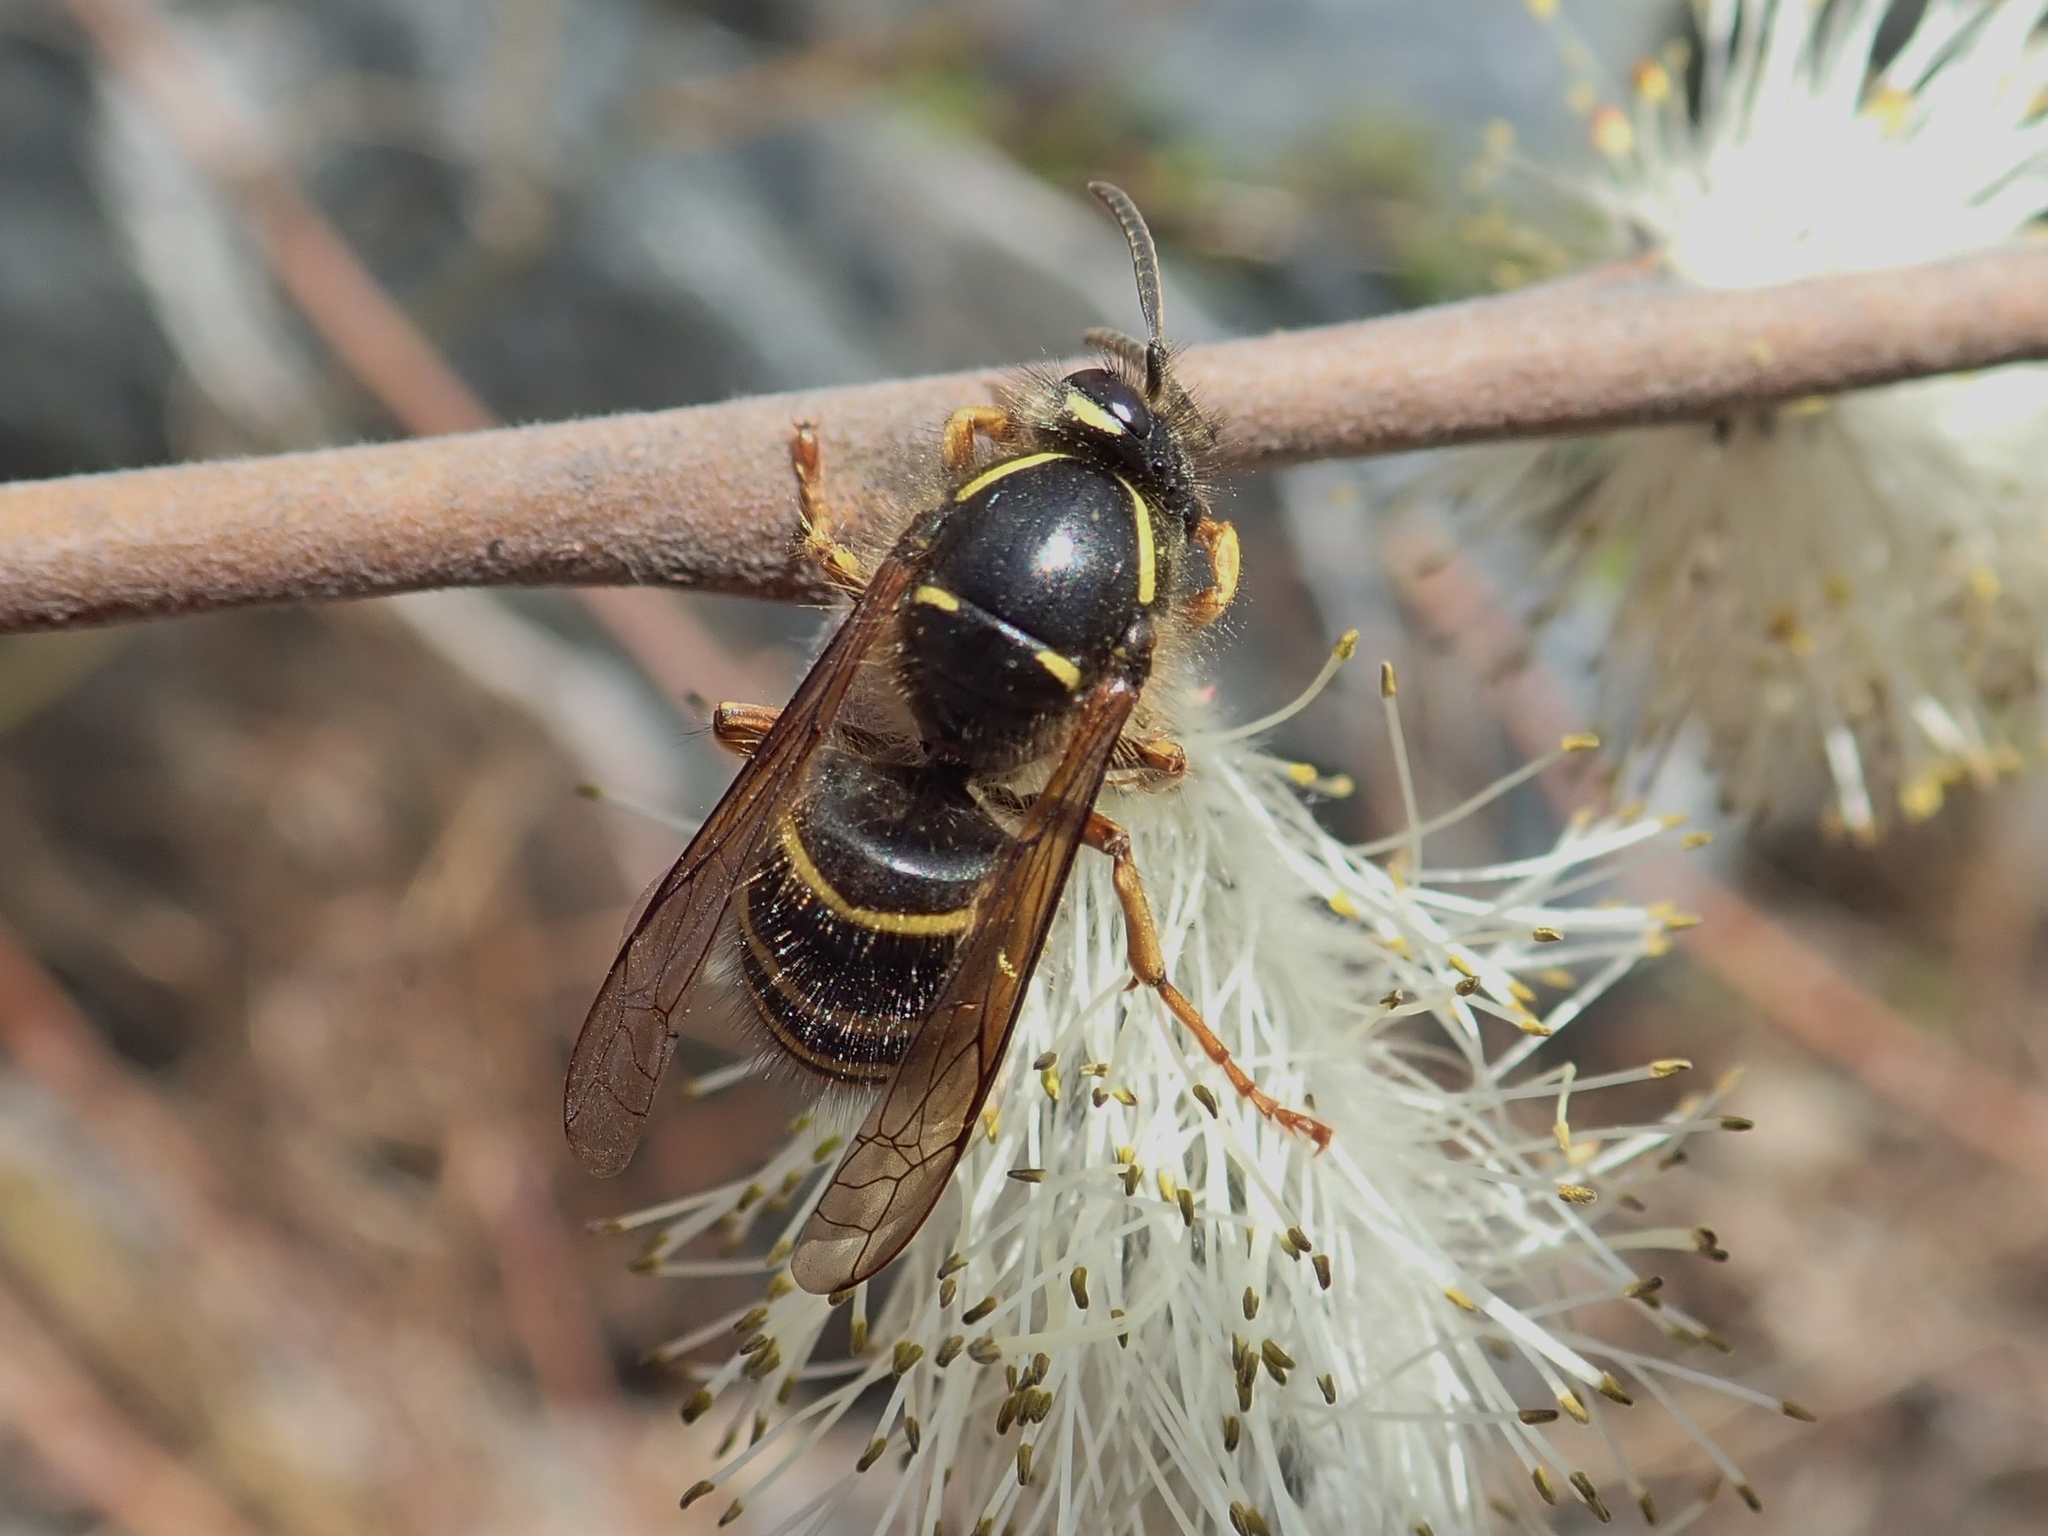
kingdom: Animalia
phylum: Arthropoda
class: Insecta
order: Hymenoptera
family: Vespidae
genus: Dolichovespula
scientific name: Dolichovespula norvegicoides
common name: Northern aerial yellowjacket
